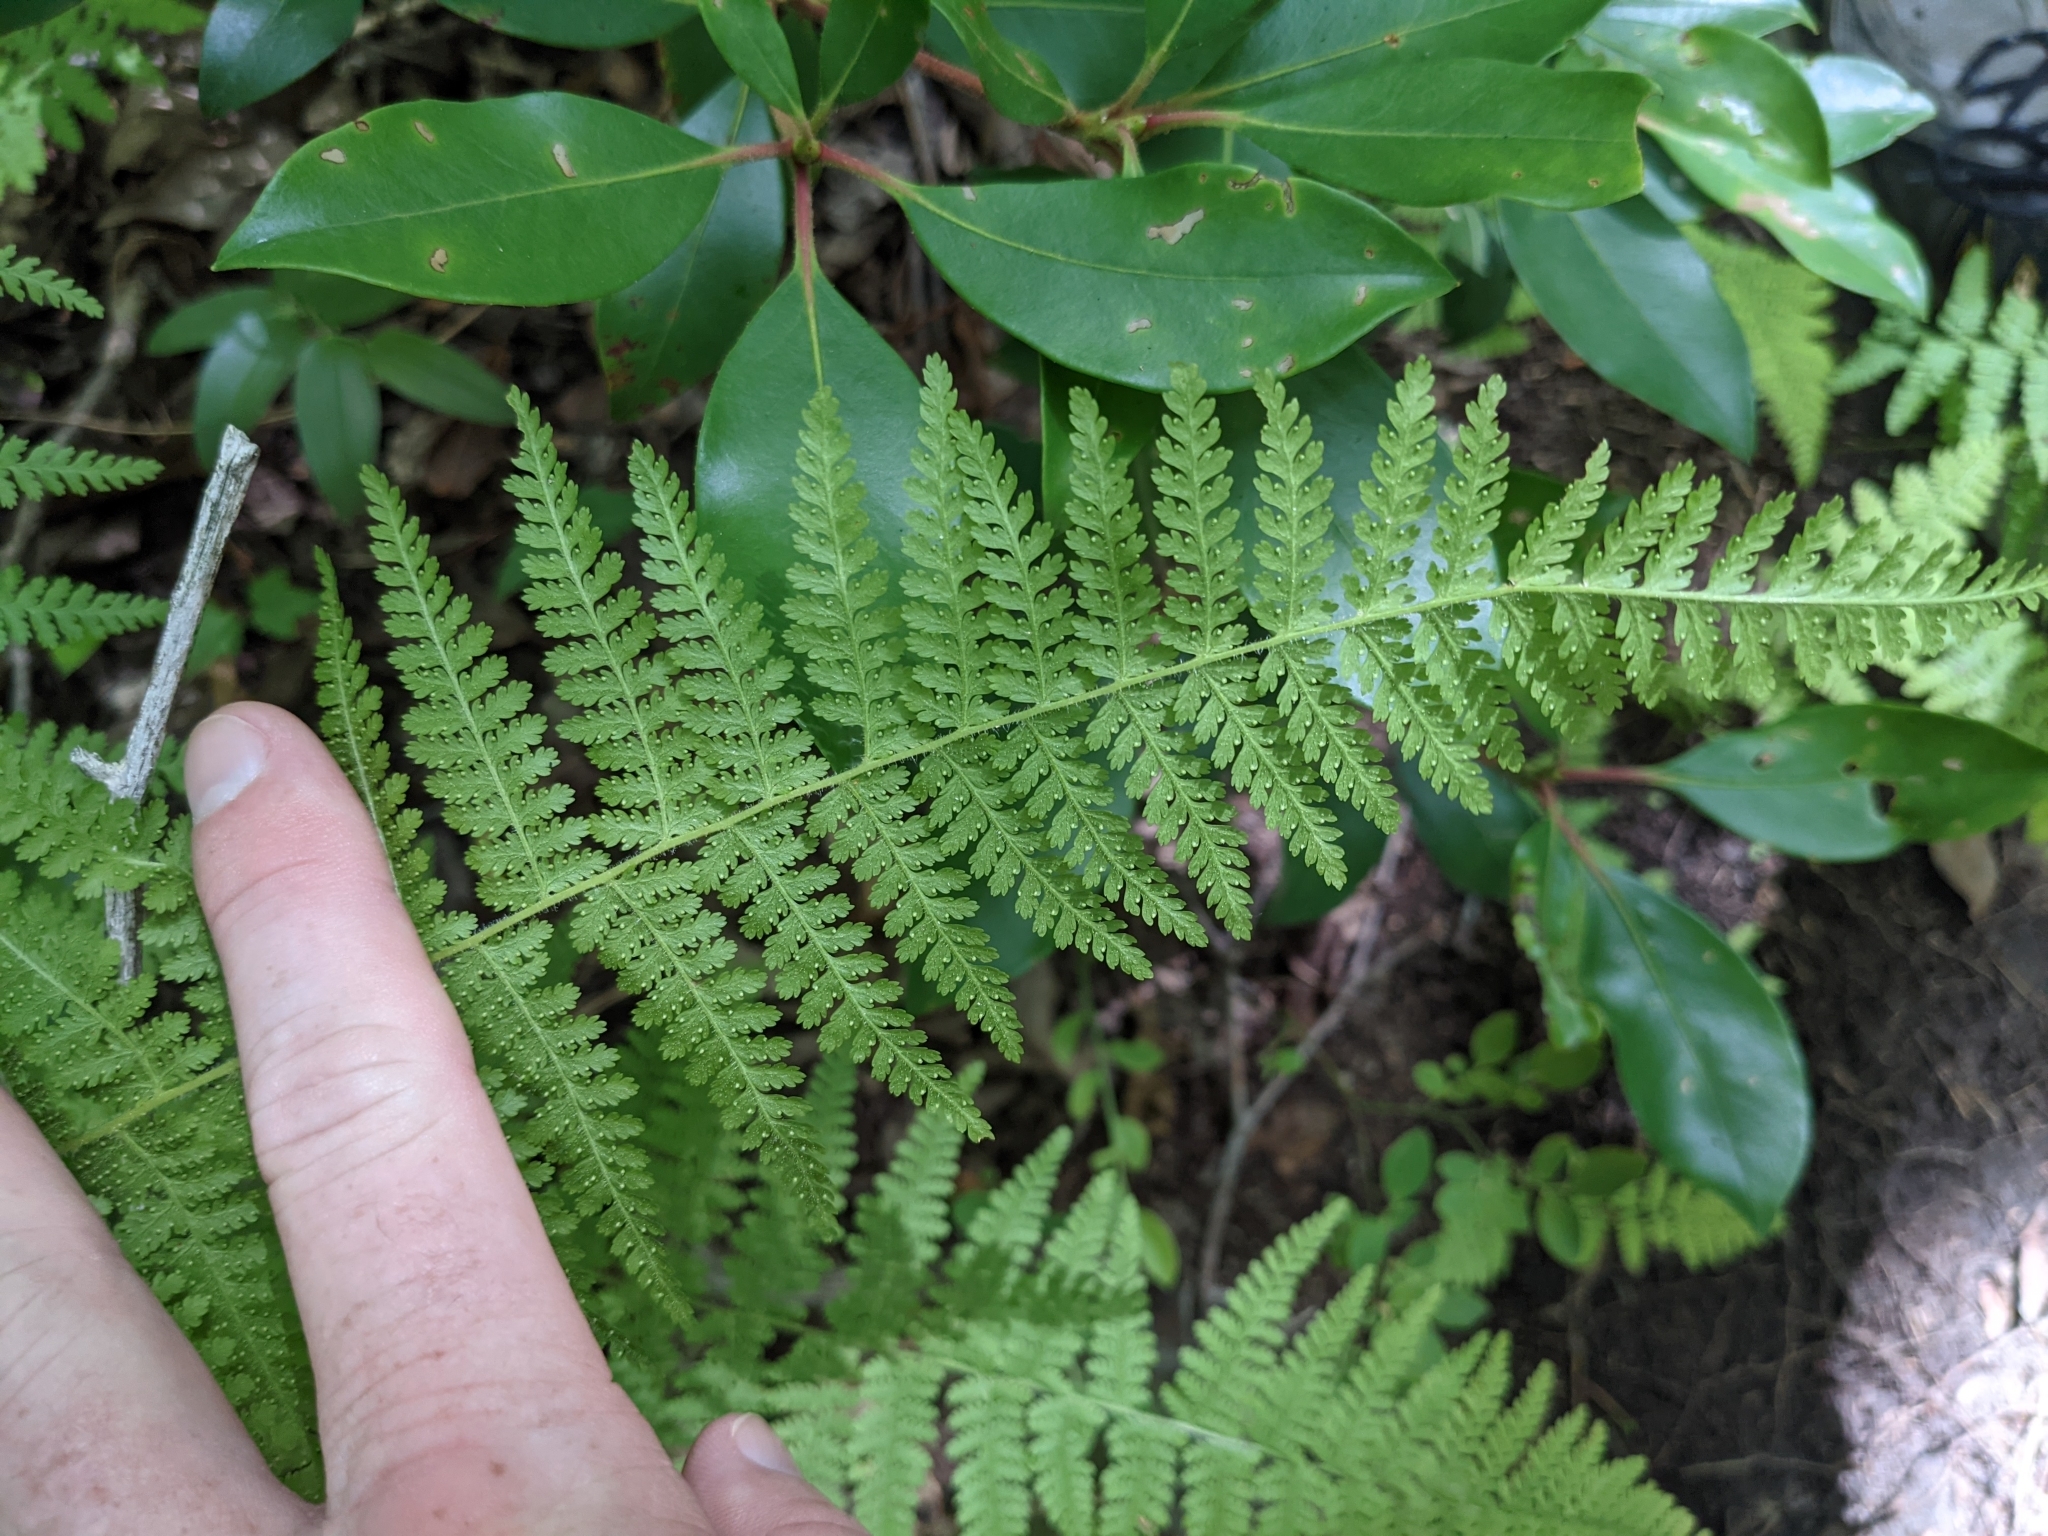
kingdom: Plantae
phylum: Tracheophyta
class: Polypodiopsida
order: Polypodiales
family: Dennstaedtiaceae
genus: Sitobolium
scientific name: Sitobolium punctilobum
